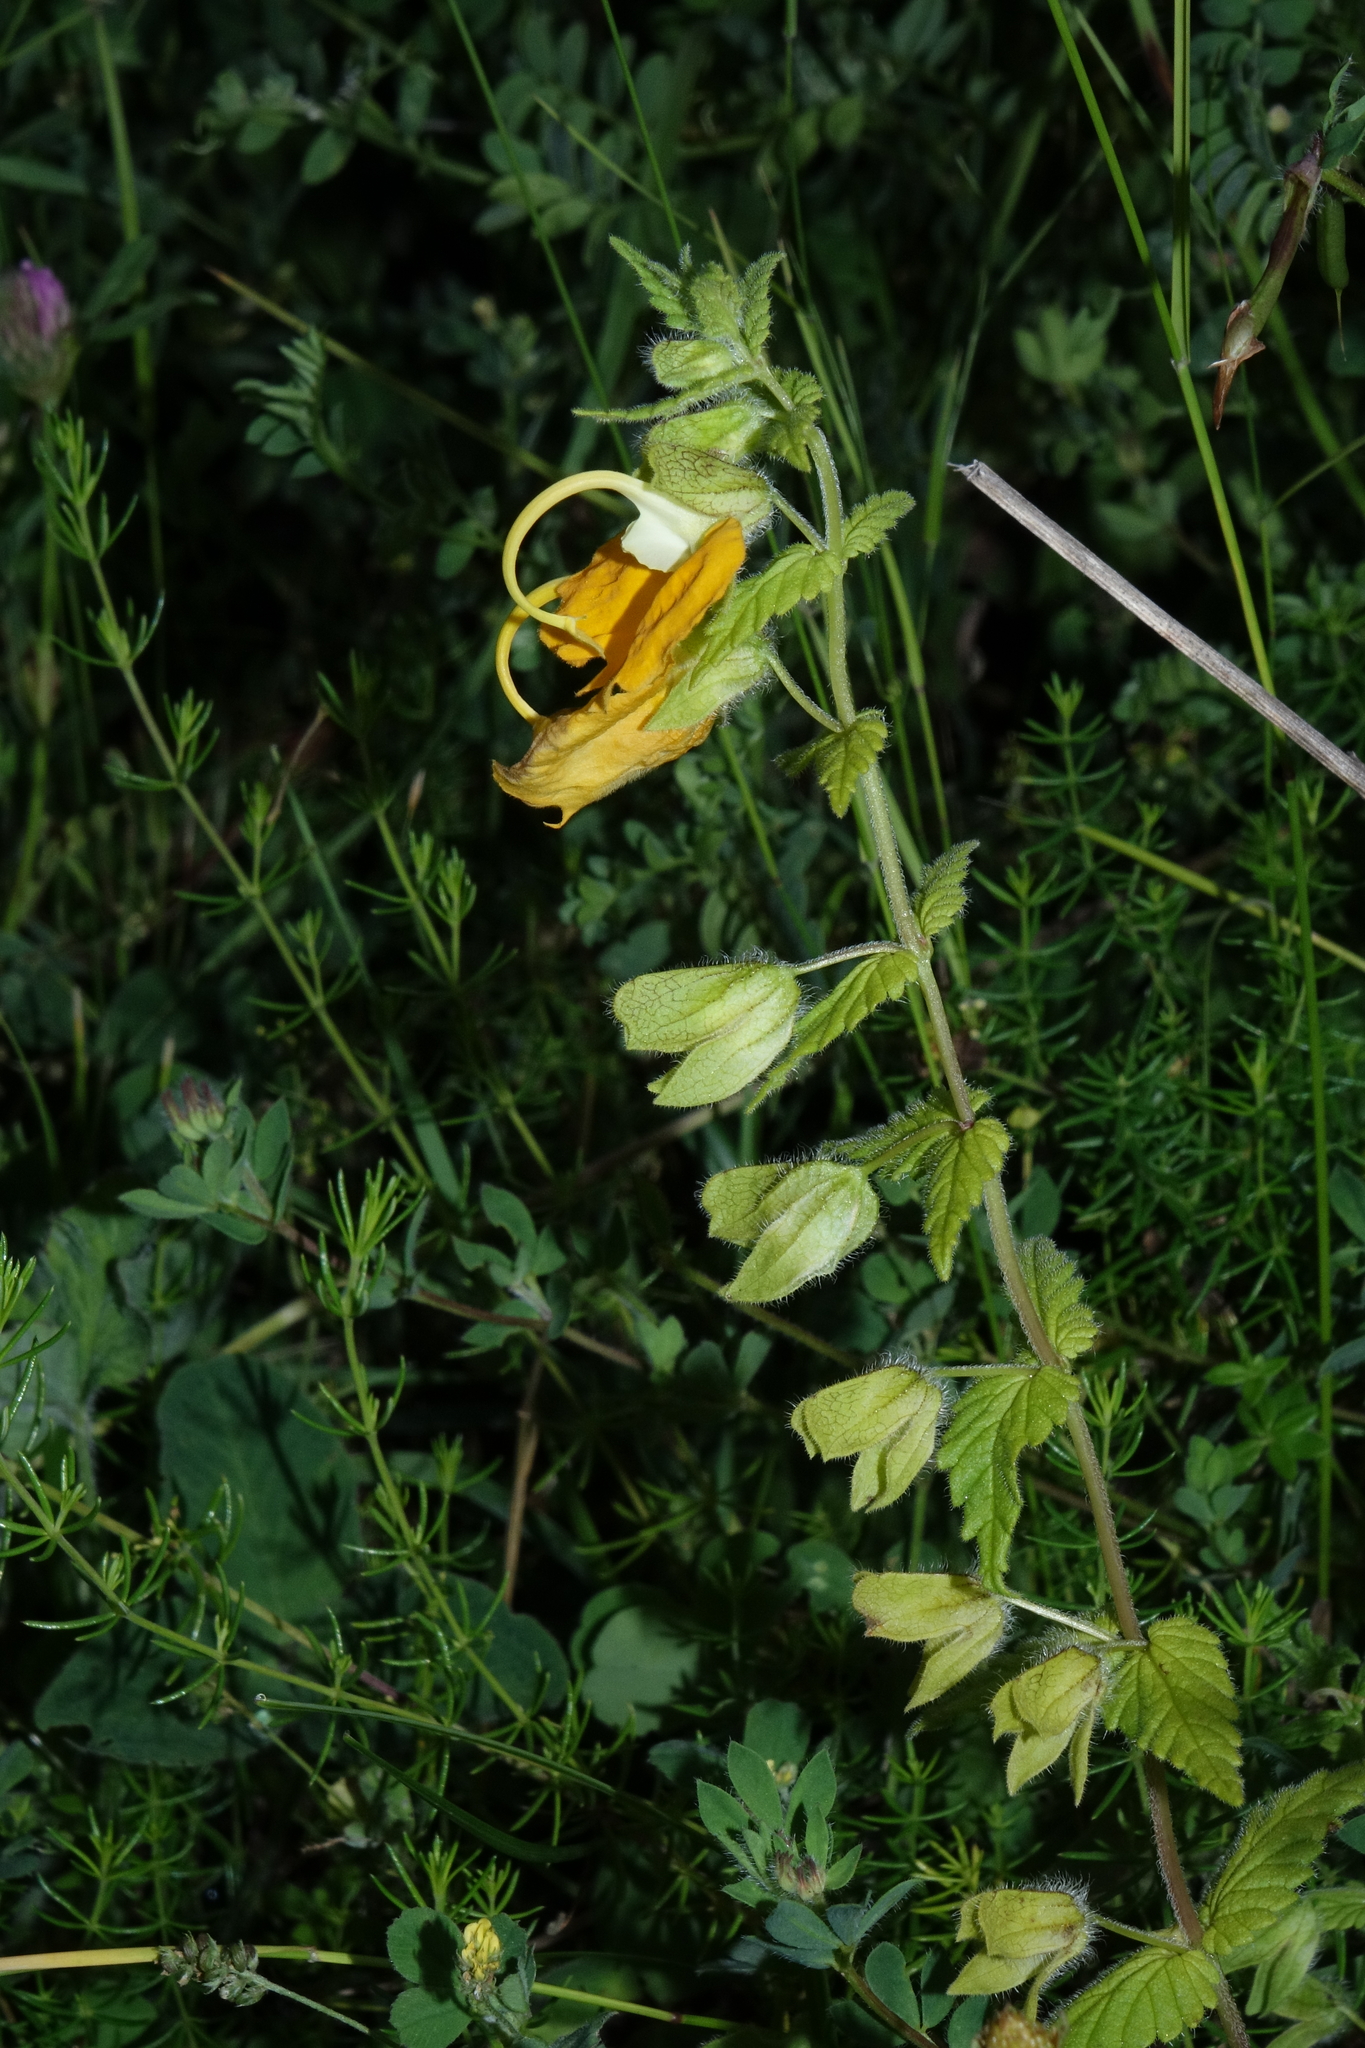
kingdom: Plantae
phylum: Tracheophyta
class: Magnoliopsida
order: Lamiales
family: Orobanchaceae
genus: Rhynchocorys
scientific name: Rhynchocorys orientalis
